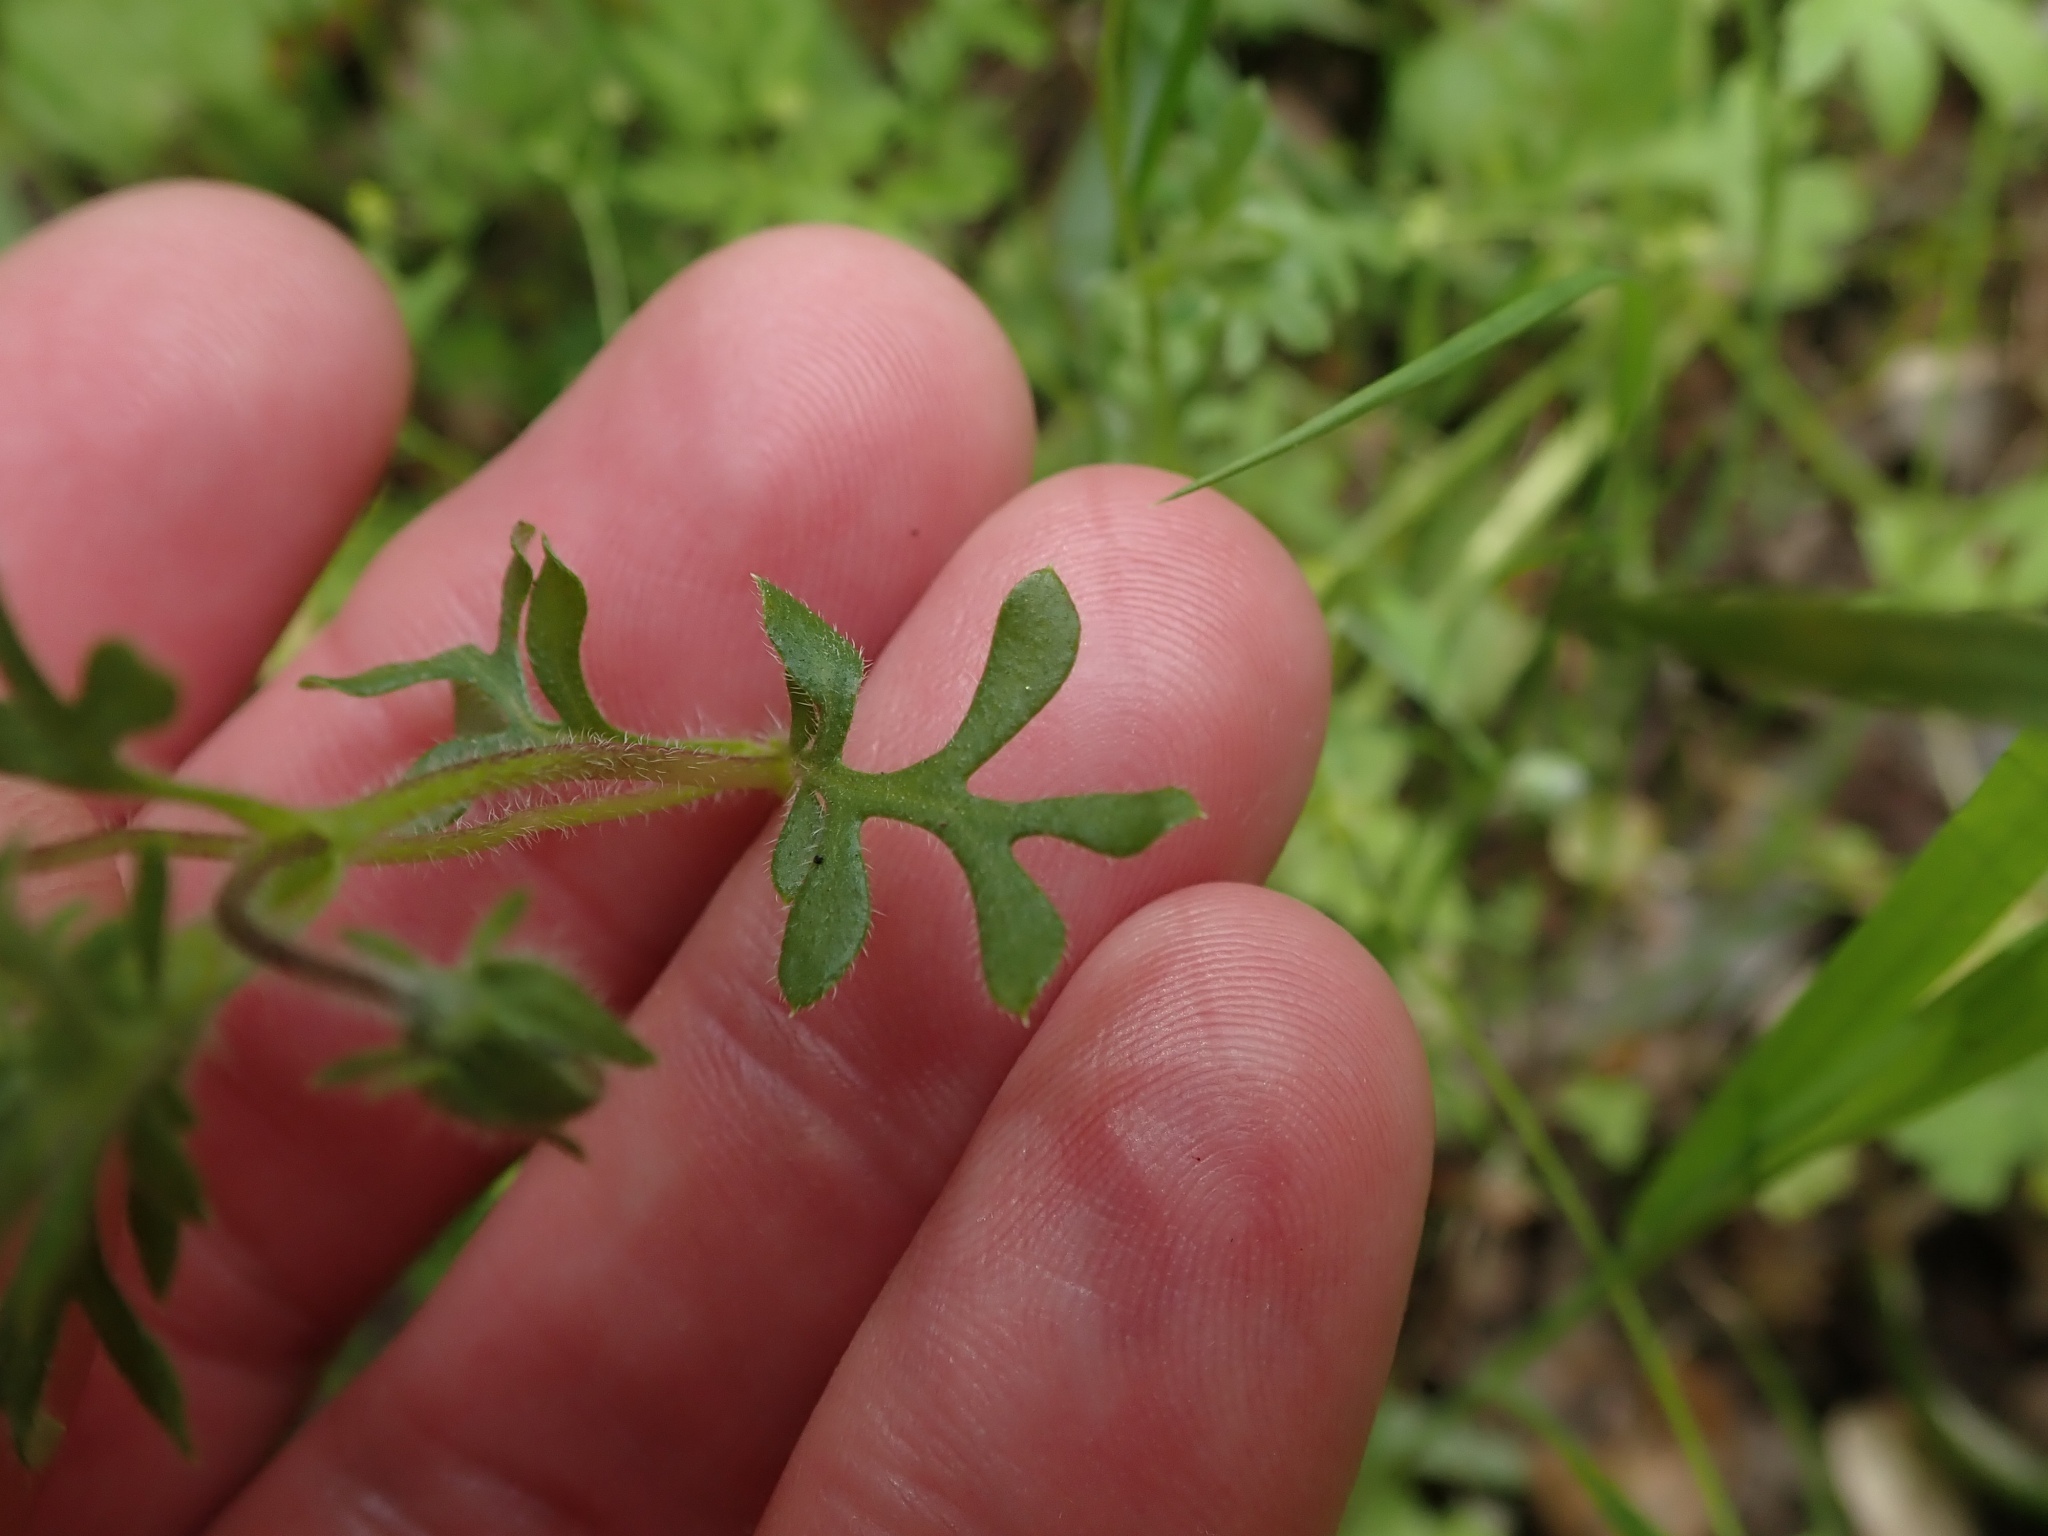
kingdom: Plantae
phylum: Tracheophyta
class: Magnoliopsida
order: Boraginales
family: Hydrophyllaceae
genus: Nemophila
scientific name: Nemophila menziesii
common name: Baby's-blue-eyes
